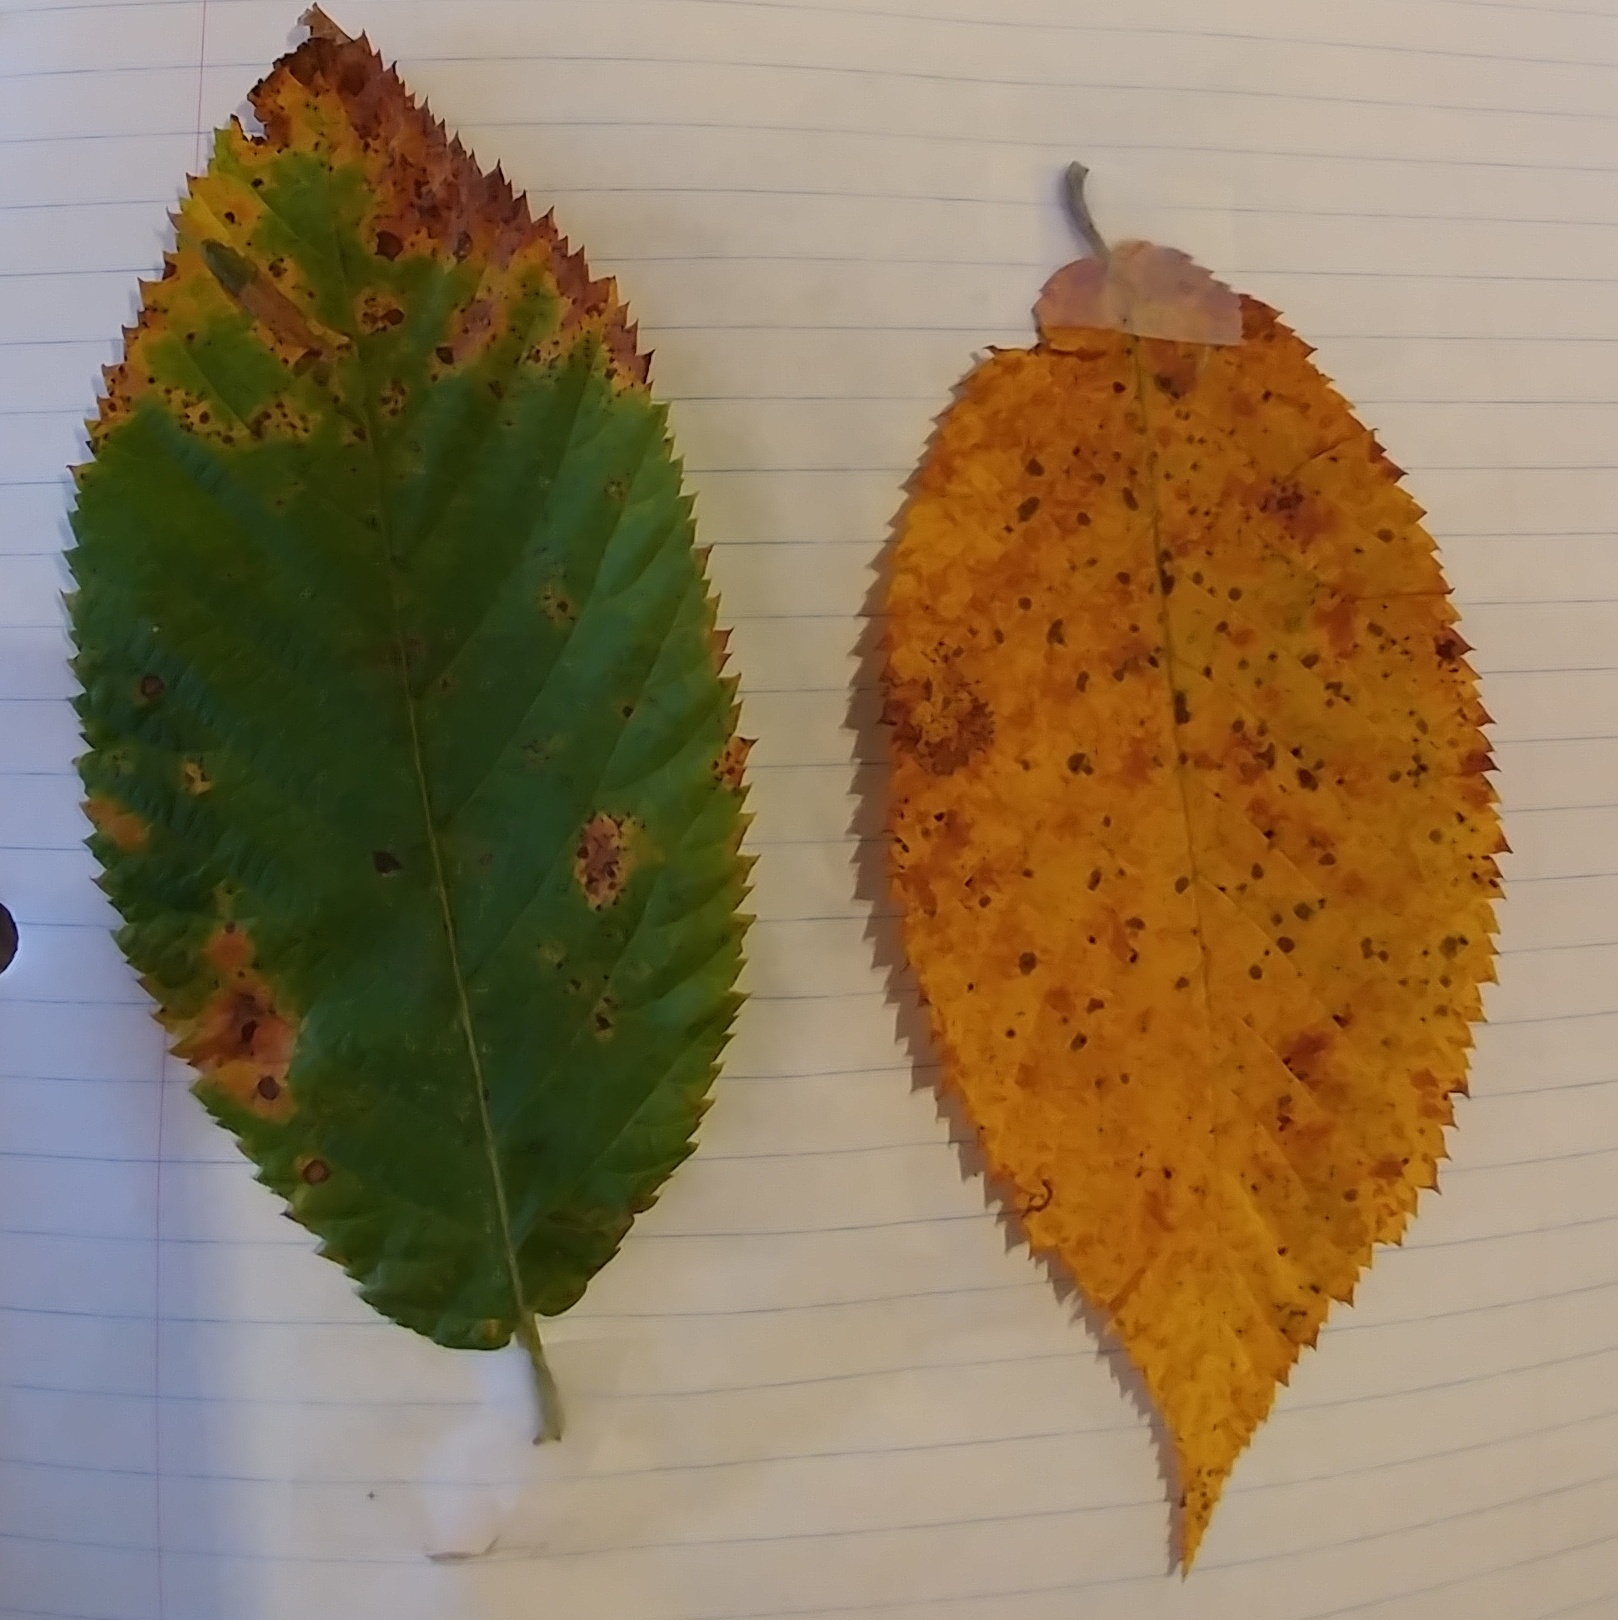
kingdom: Plantae
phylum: Tracheophyta
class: Magnoliopsida
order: Fagales
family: Betulaceae
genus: Ostrya
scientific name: Ostrya virginiana
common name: Ironwood
